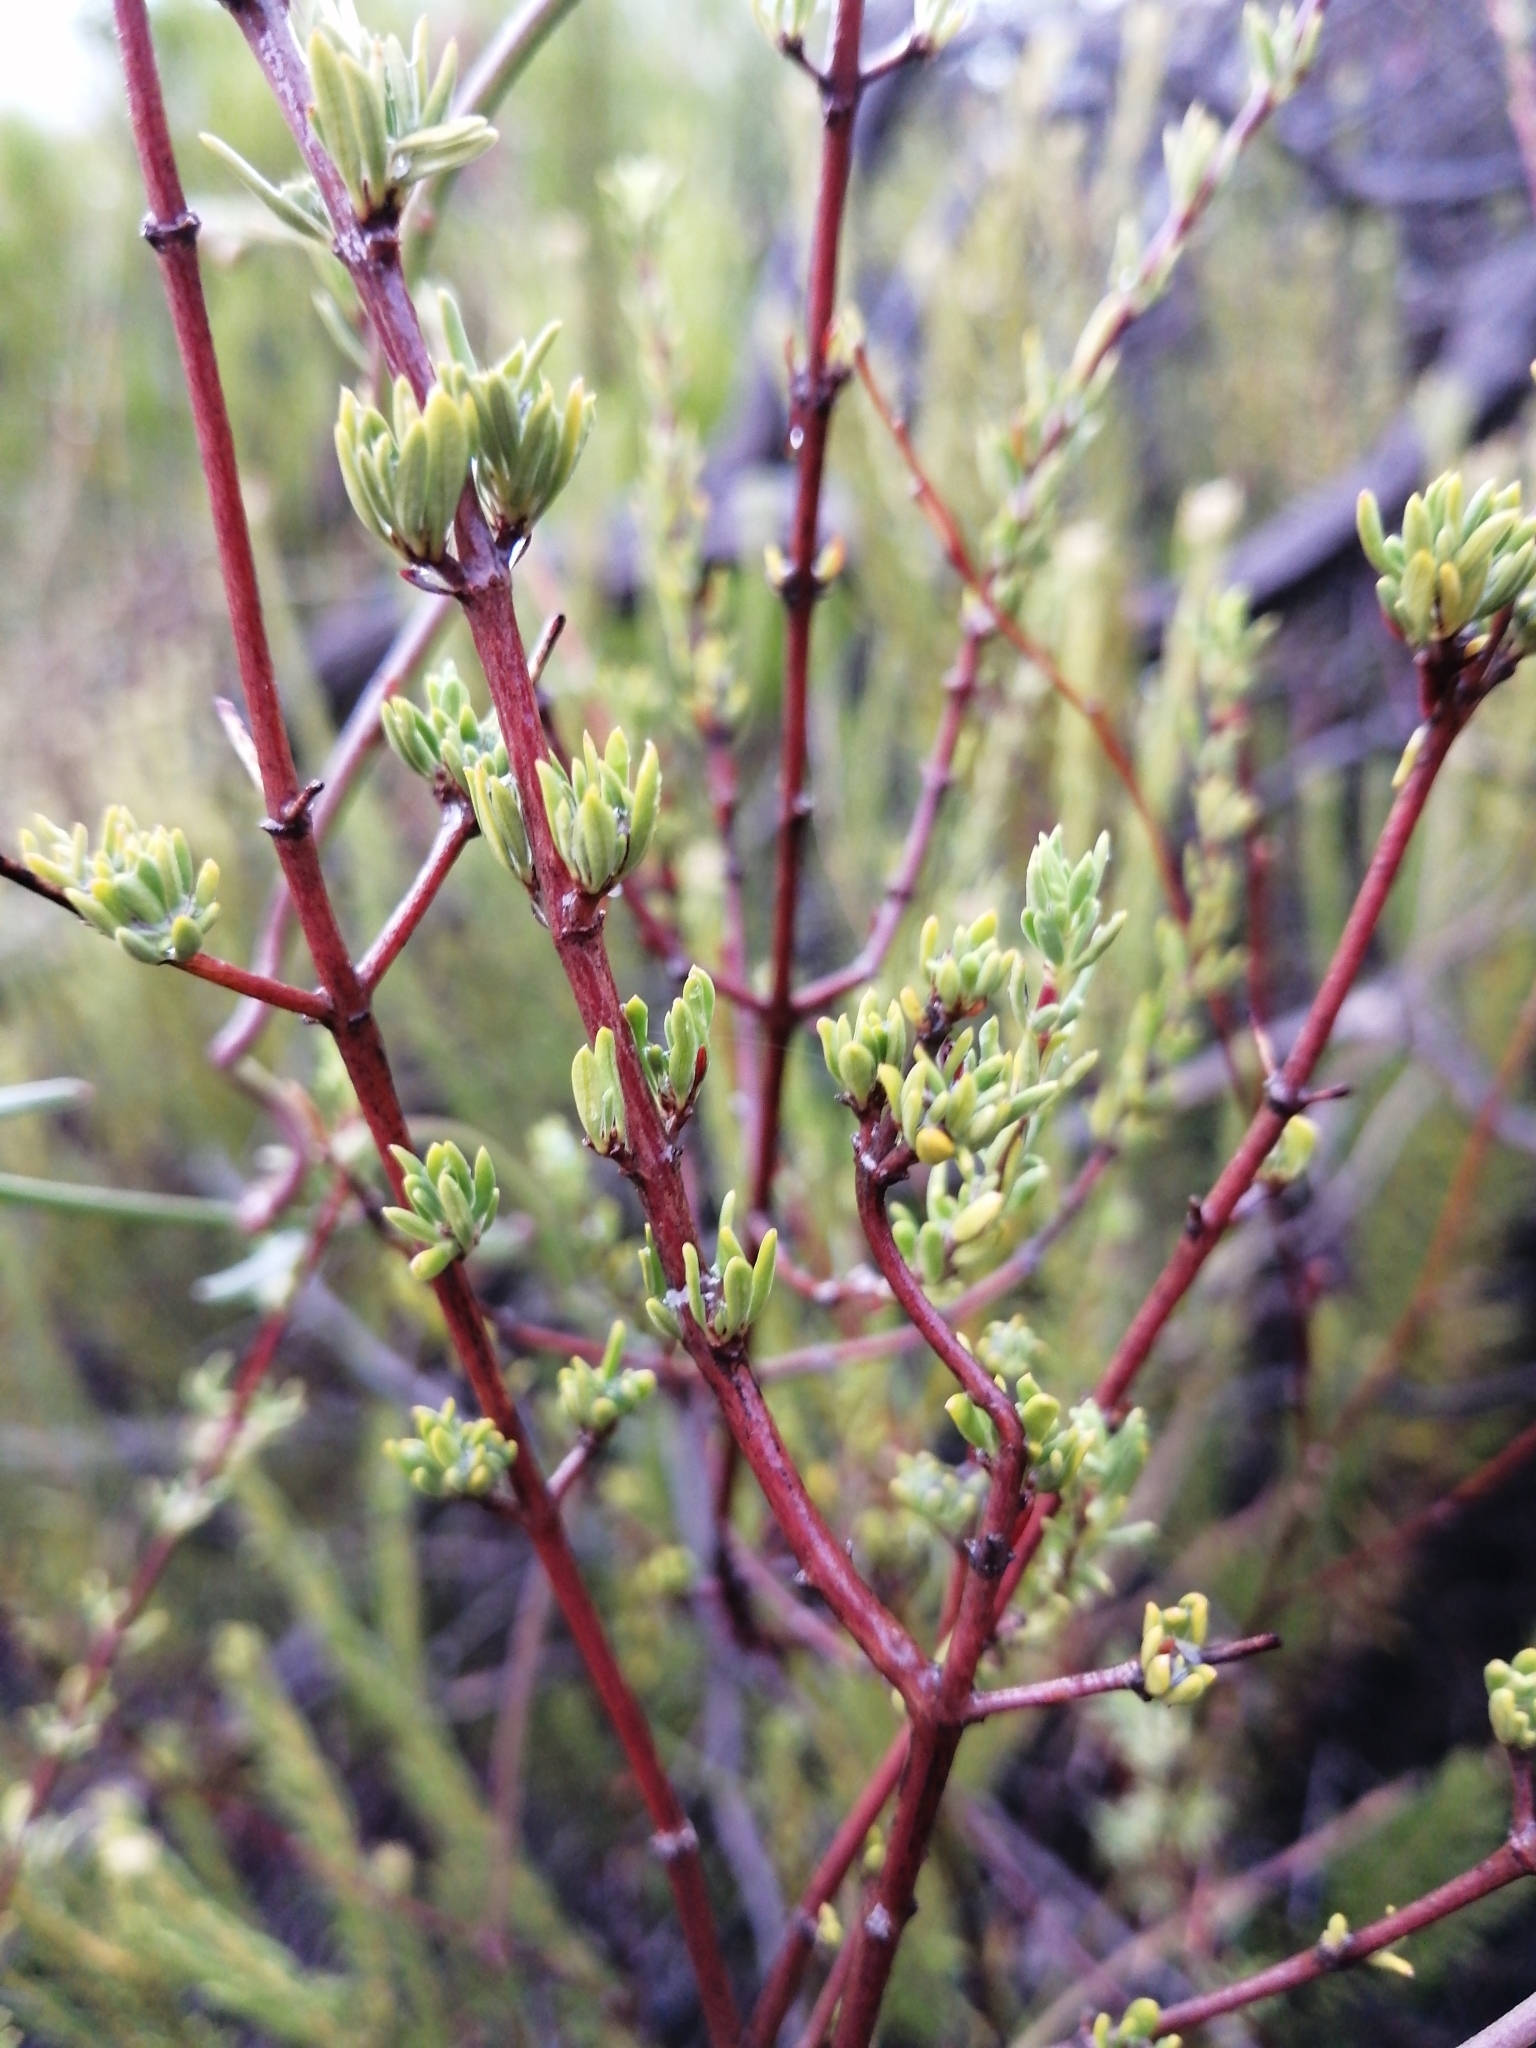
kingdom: Plantae
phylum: Tracheophyta
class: Magnoliopsida
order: Malvales
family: Malvaceae
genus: Hermannia
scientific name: Hermannia filifolia
